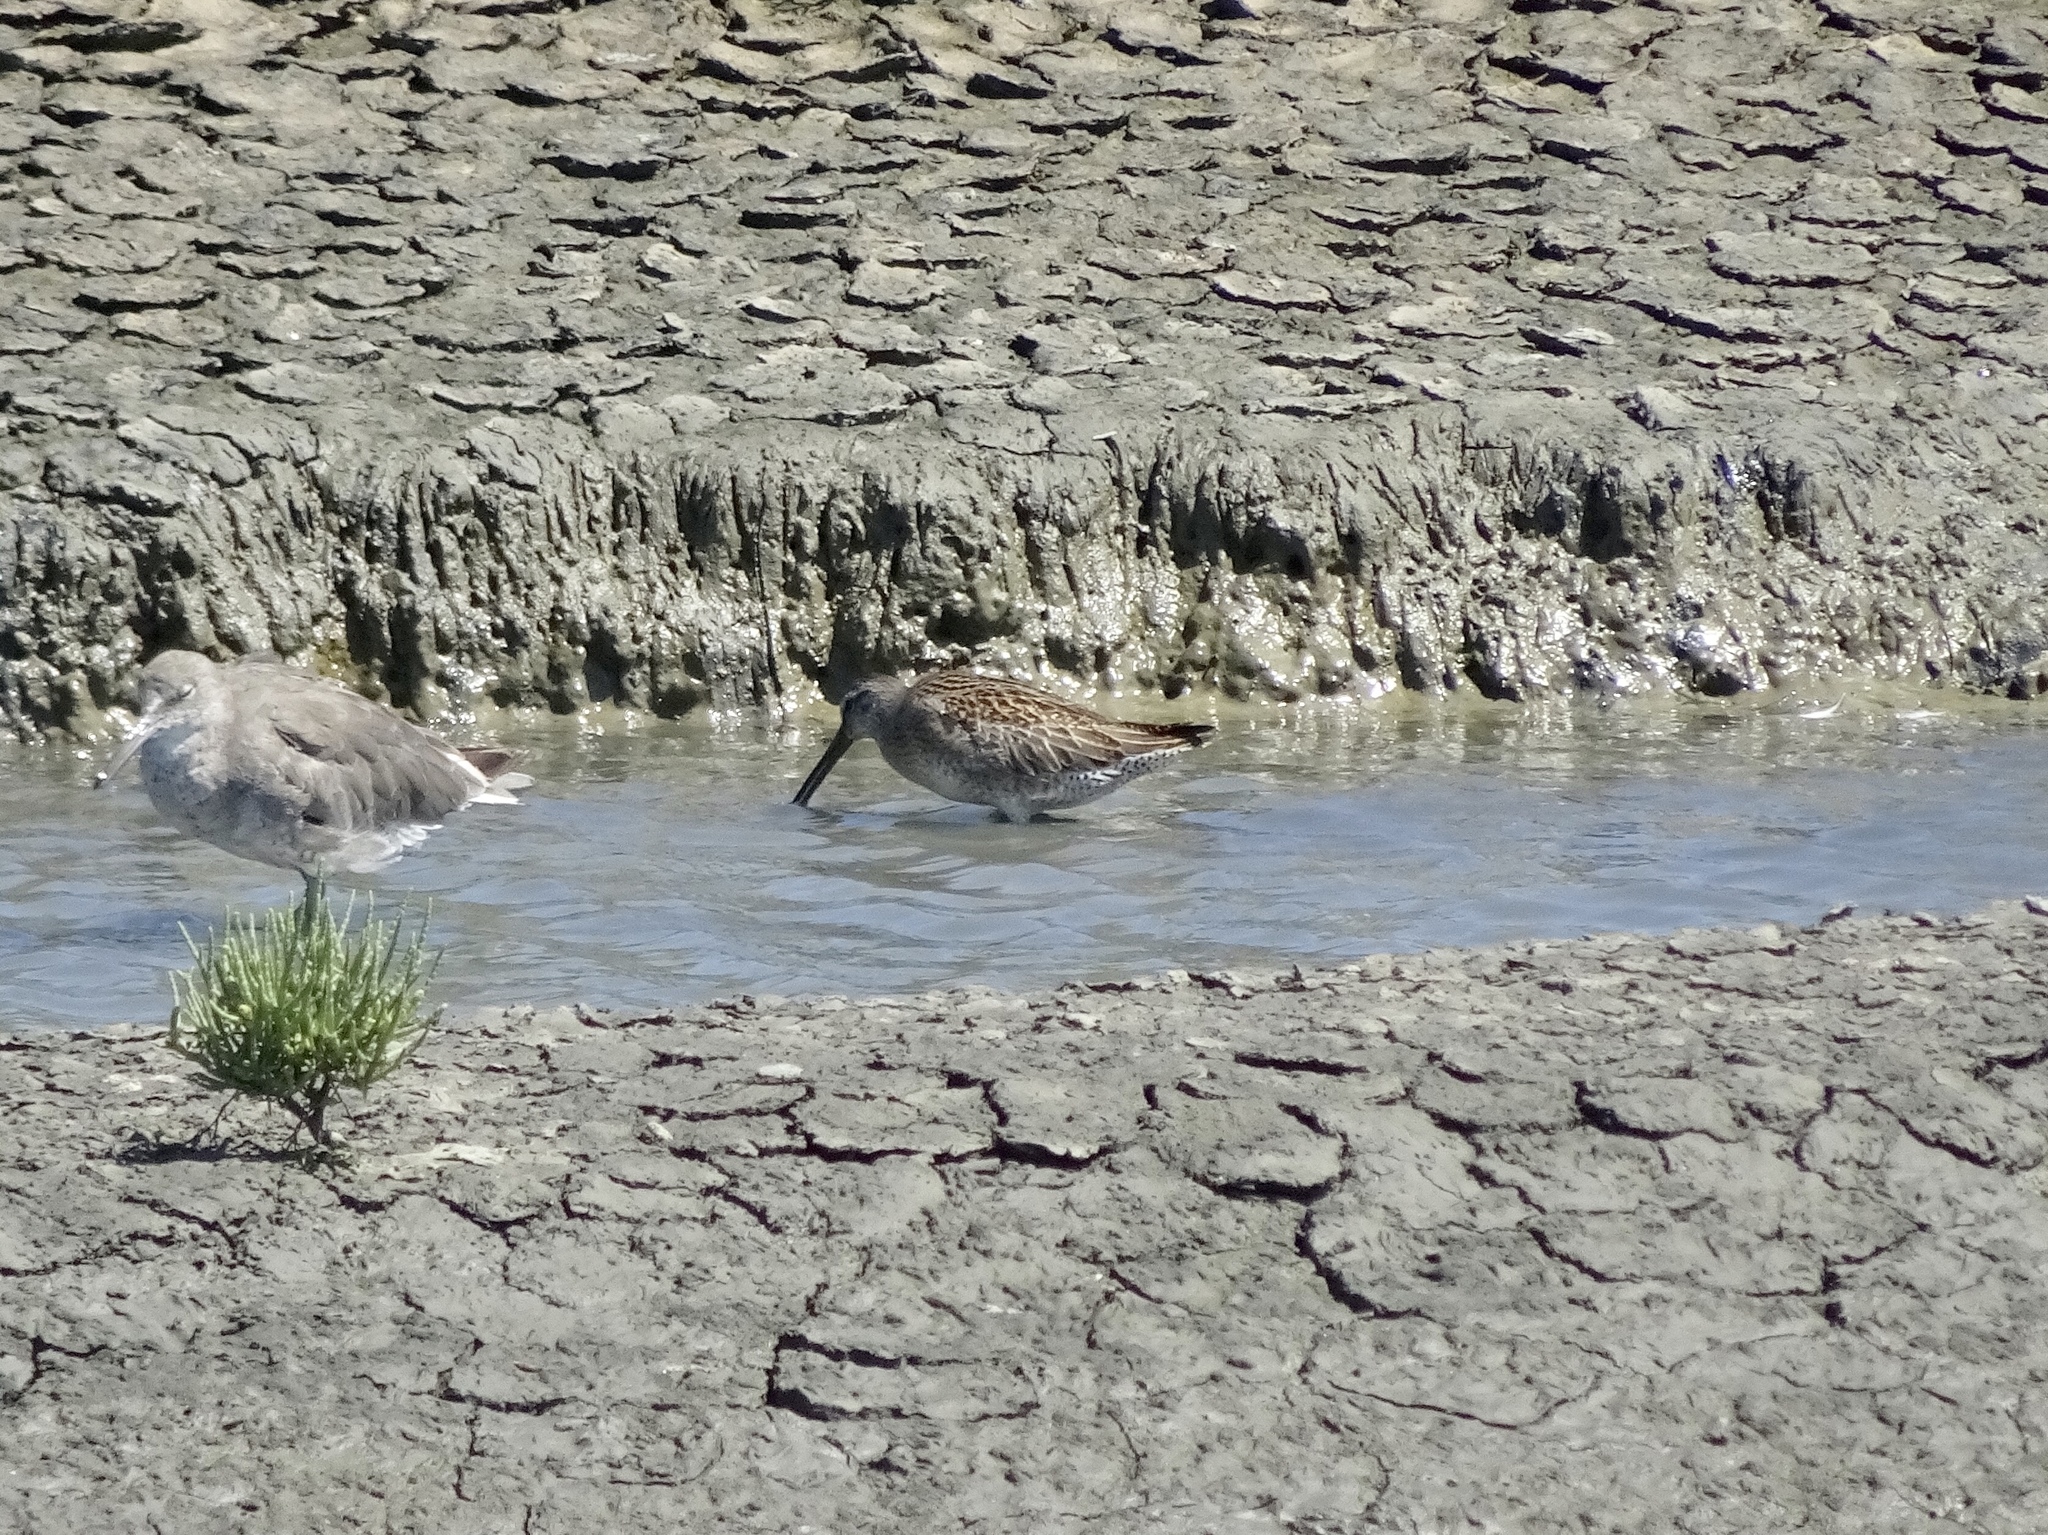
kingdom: Animalia
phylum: Chordata
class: Aves
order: Charadriiformes
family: Scolopacidae
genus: Limnodromus
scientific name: Limnodromus scolopaceus
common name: Long-billed dowitcher
